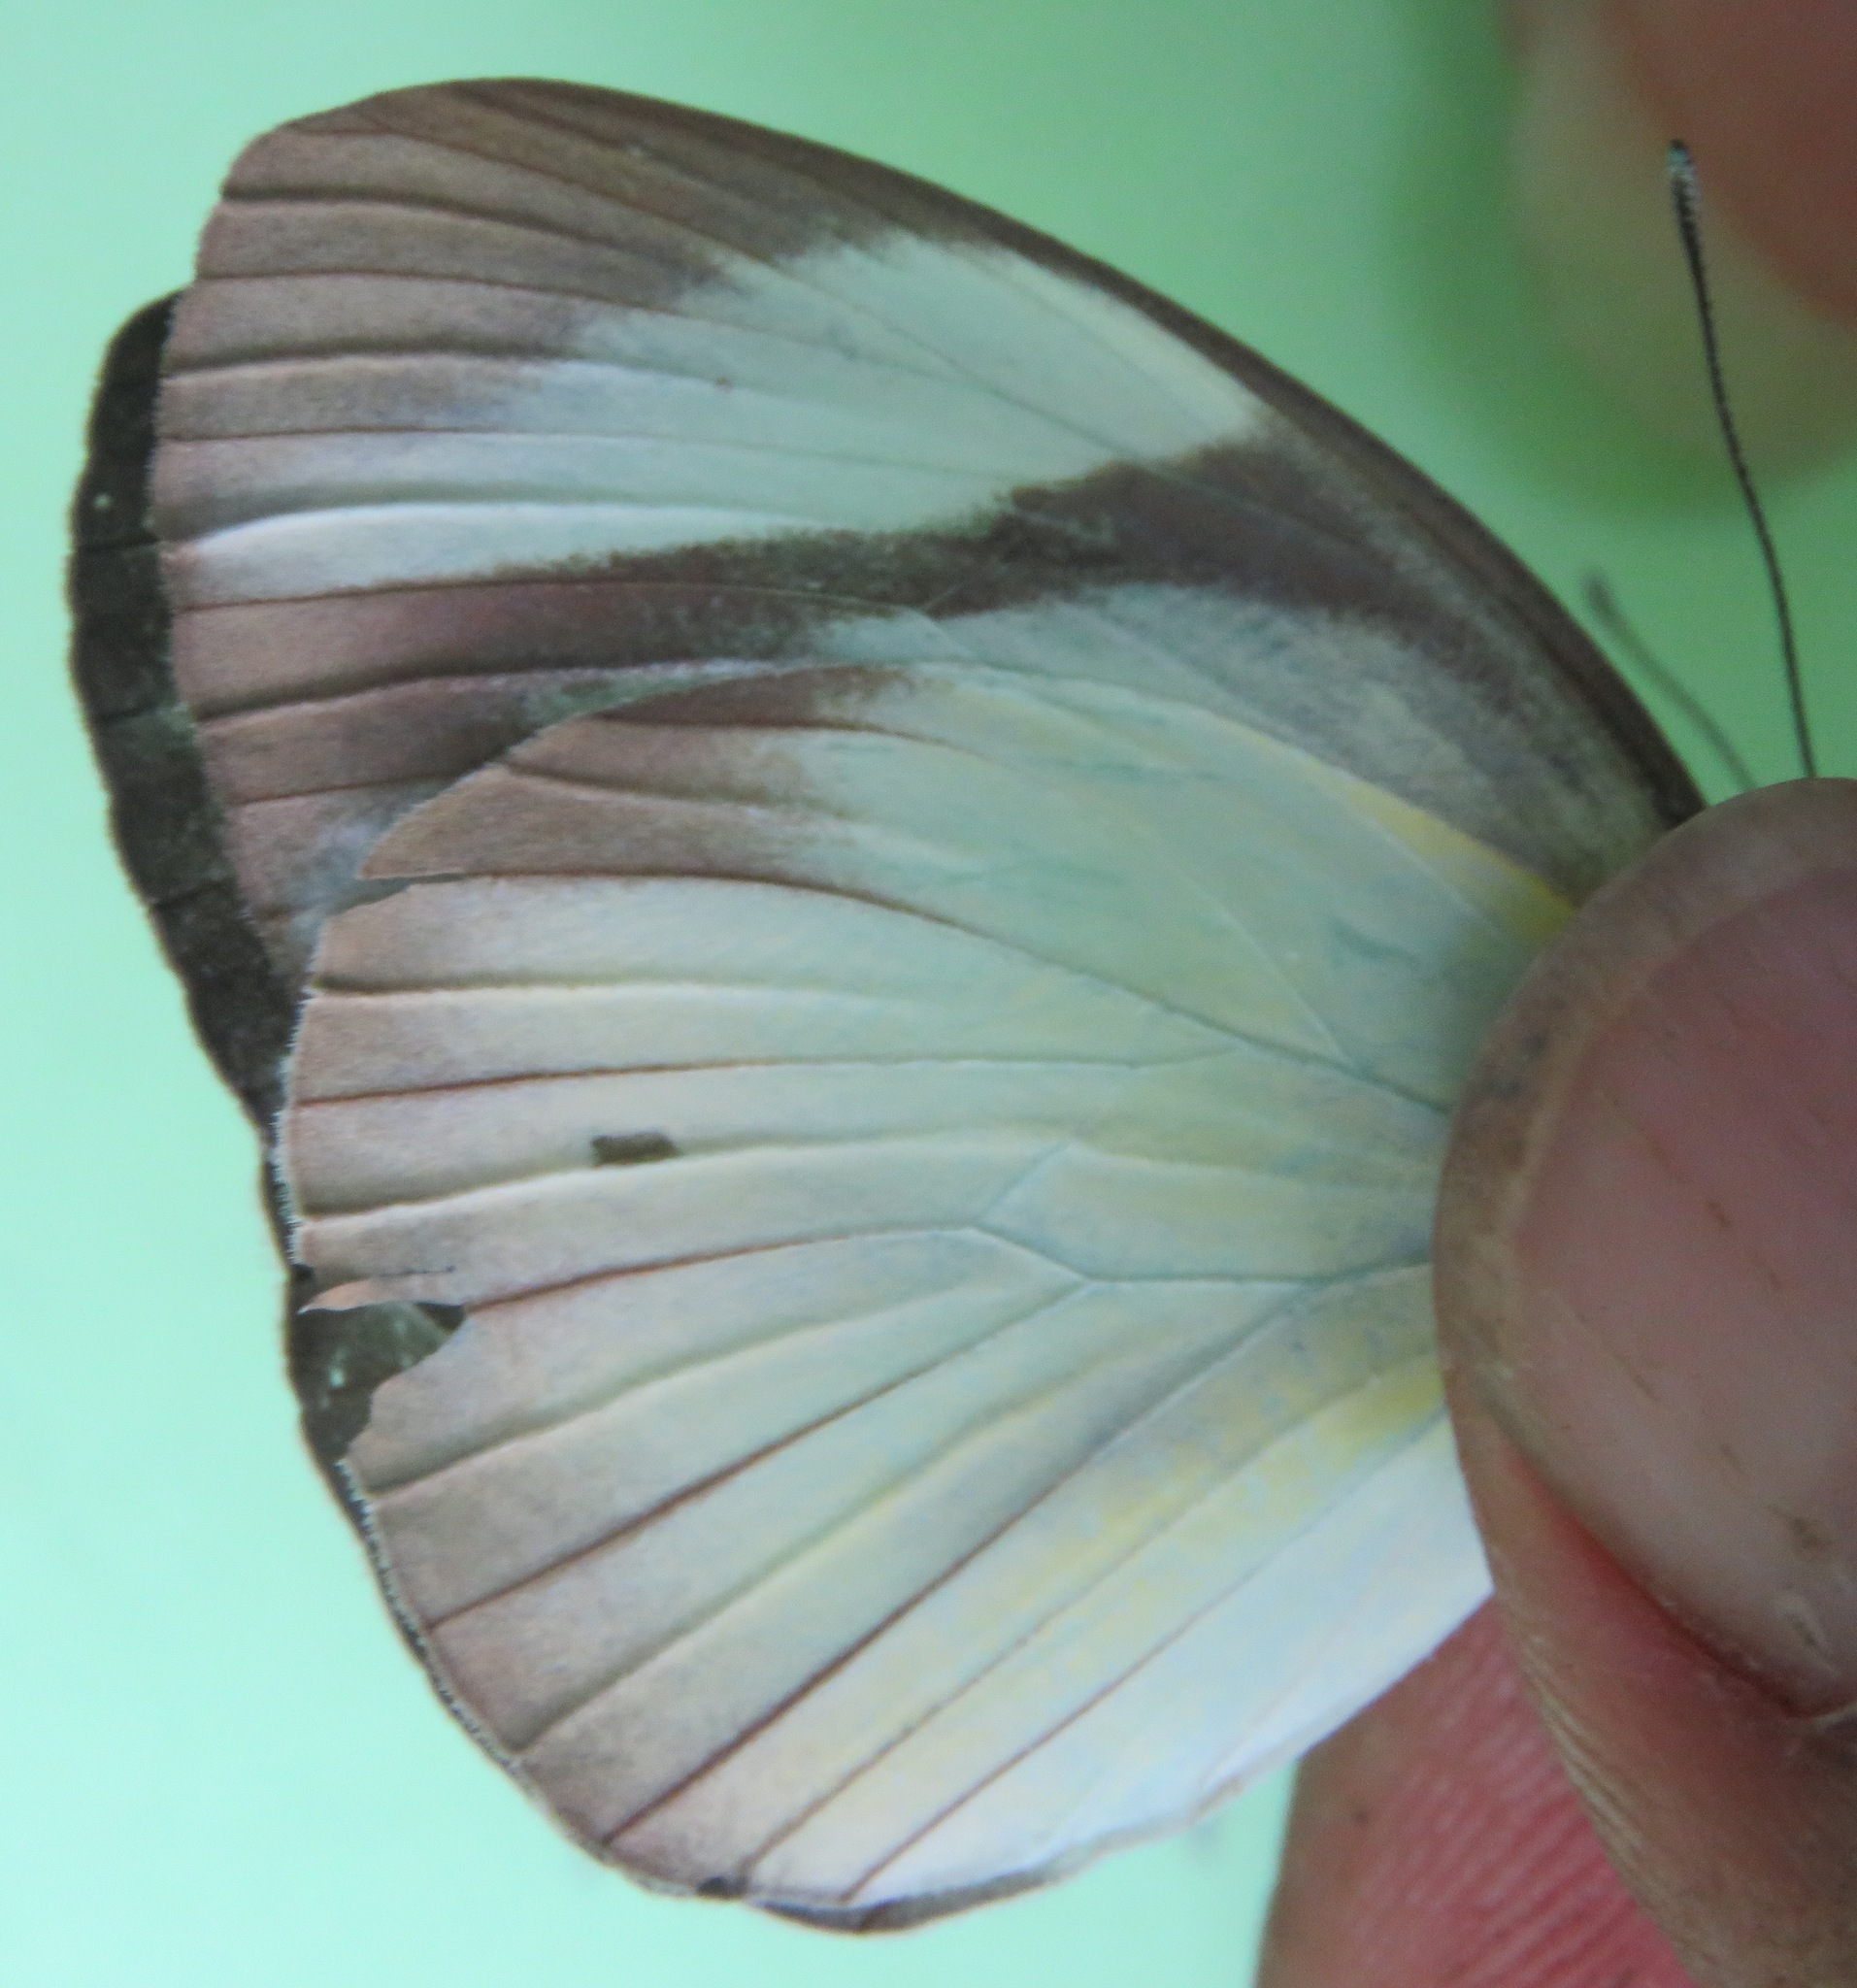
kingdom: Animalia
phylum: Arthropoda
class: Insecta
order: Lepidoptera
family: Pieridae
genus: Itaballia
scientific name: Itaballia demophile
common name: Cross-barred white
